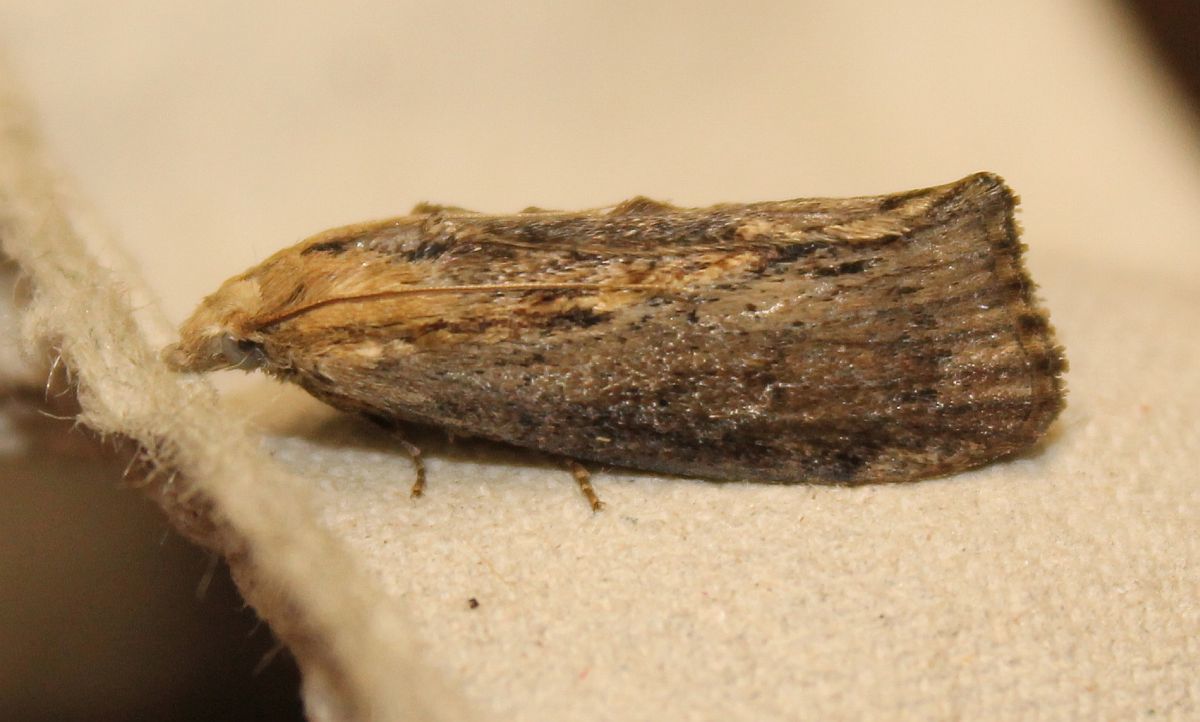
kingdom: Animalia
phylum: Arthropoda
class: Insecta
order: Lepidoptera
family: Pyralidae
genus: Galleria
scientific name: Galleria mellonella
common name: Greater wax moth
